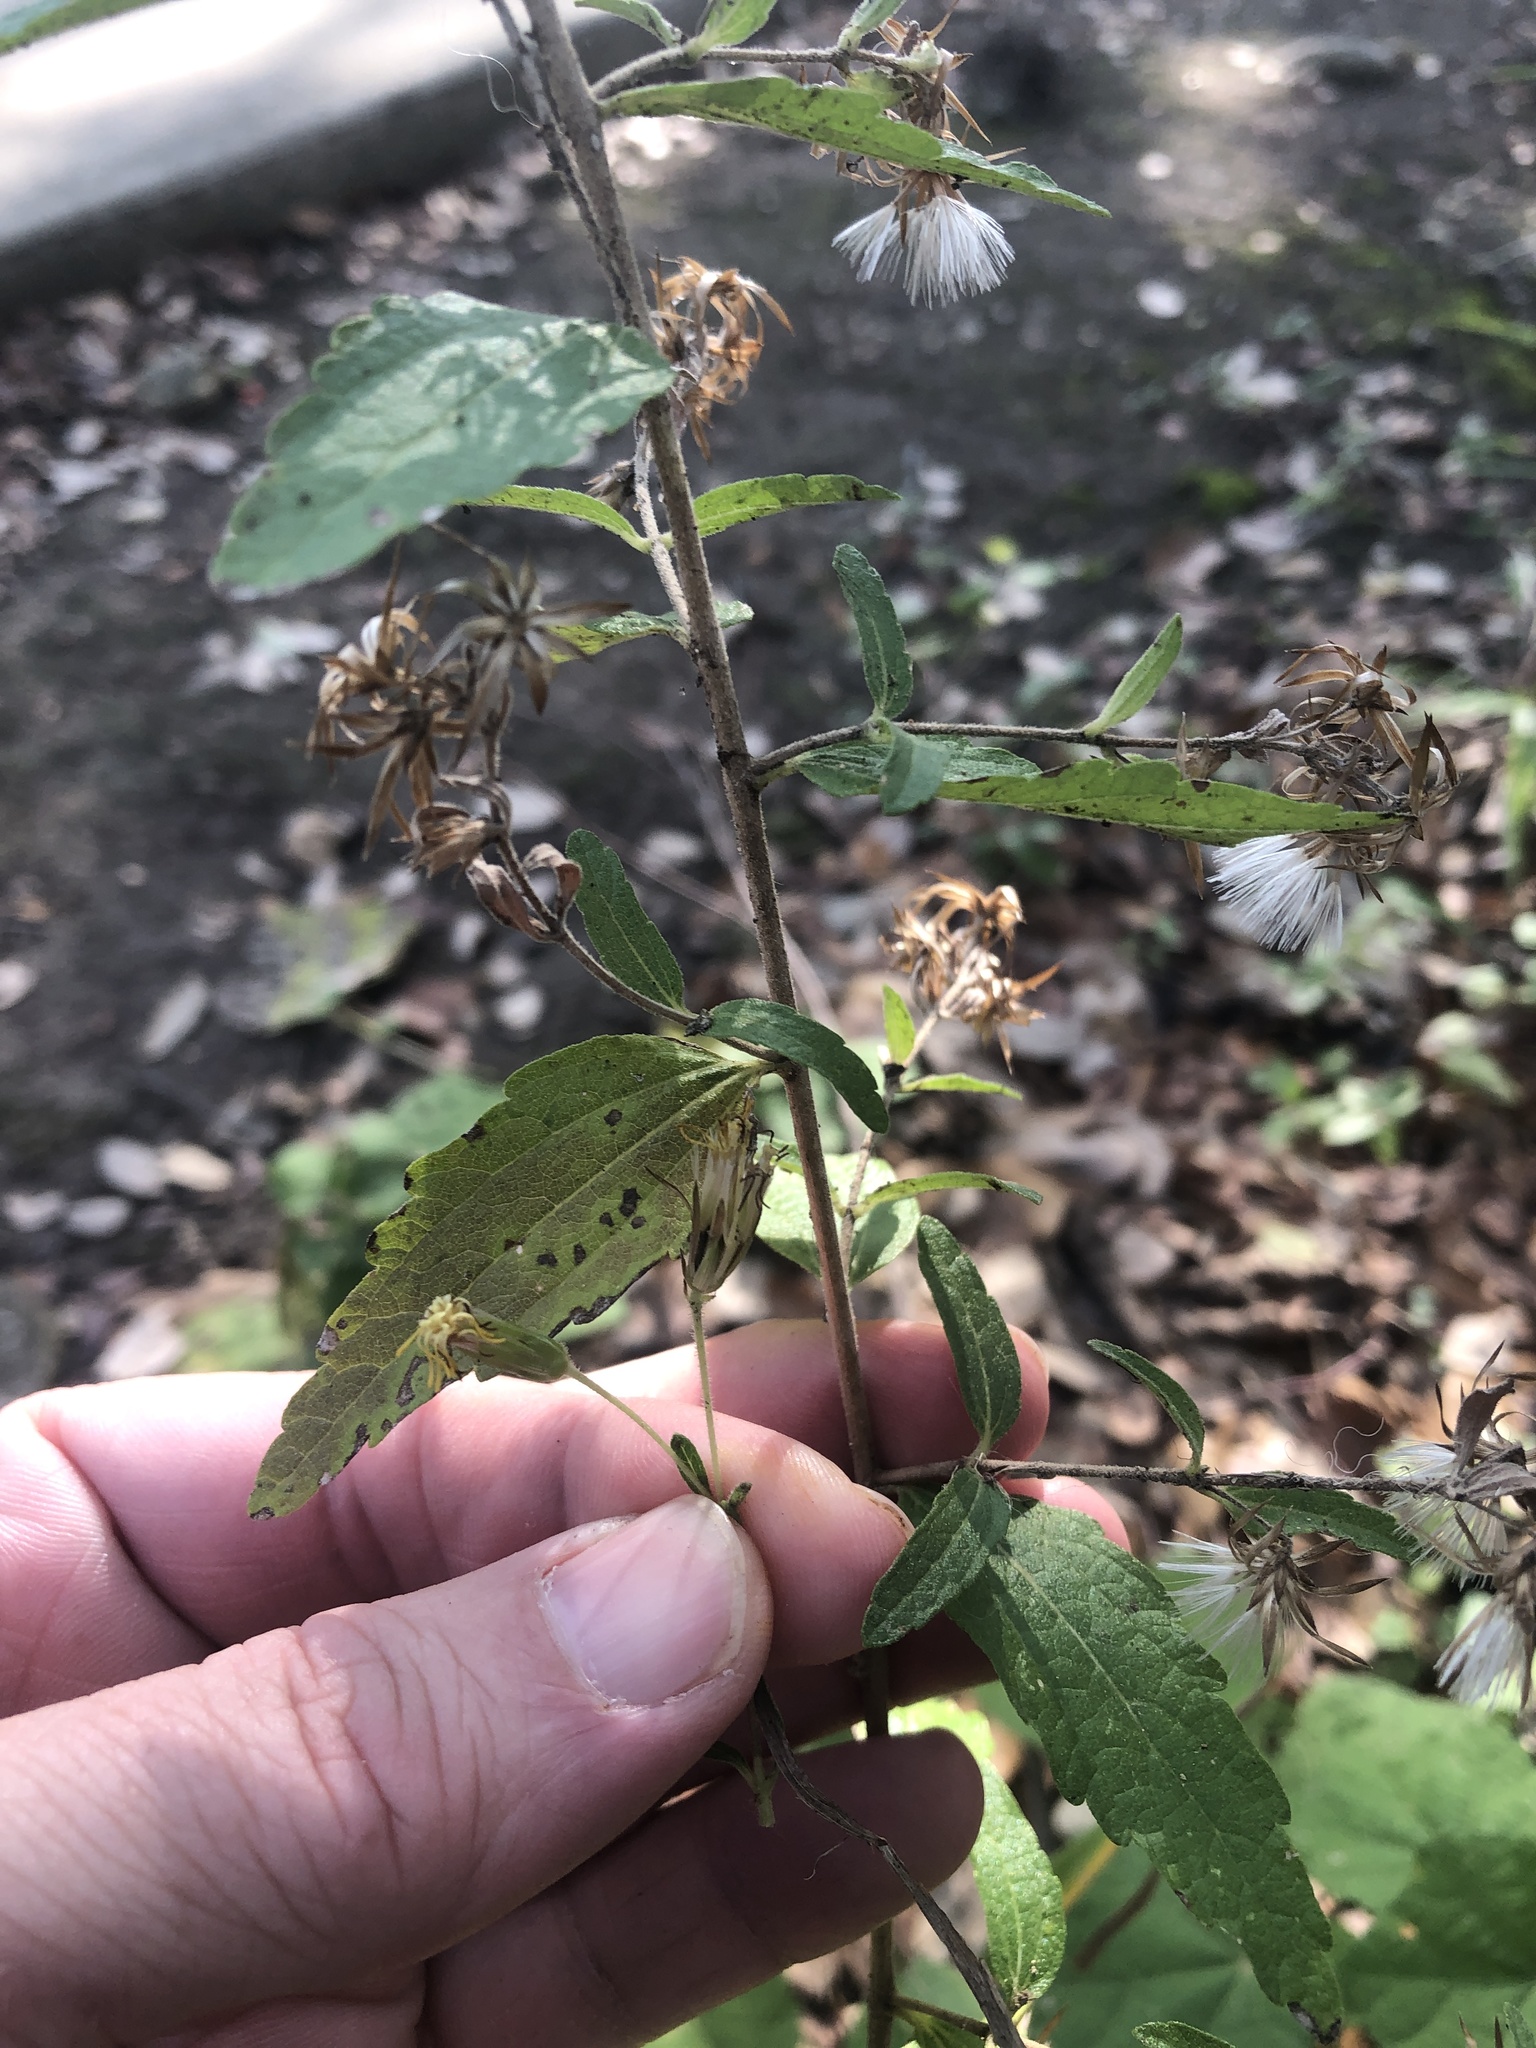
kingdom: Plantae
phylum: Tracheophyta
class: Magnoliopsida
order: Asterales
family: Asteraceae
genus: Brickellia
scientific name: Brickellia cylindracea
